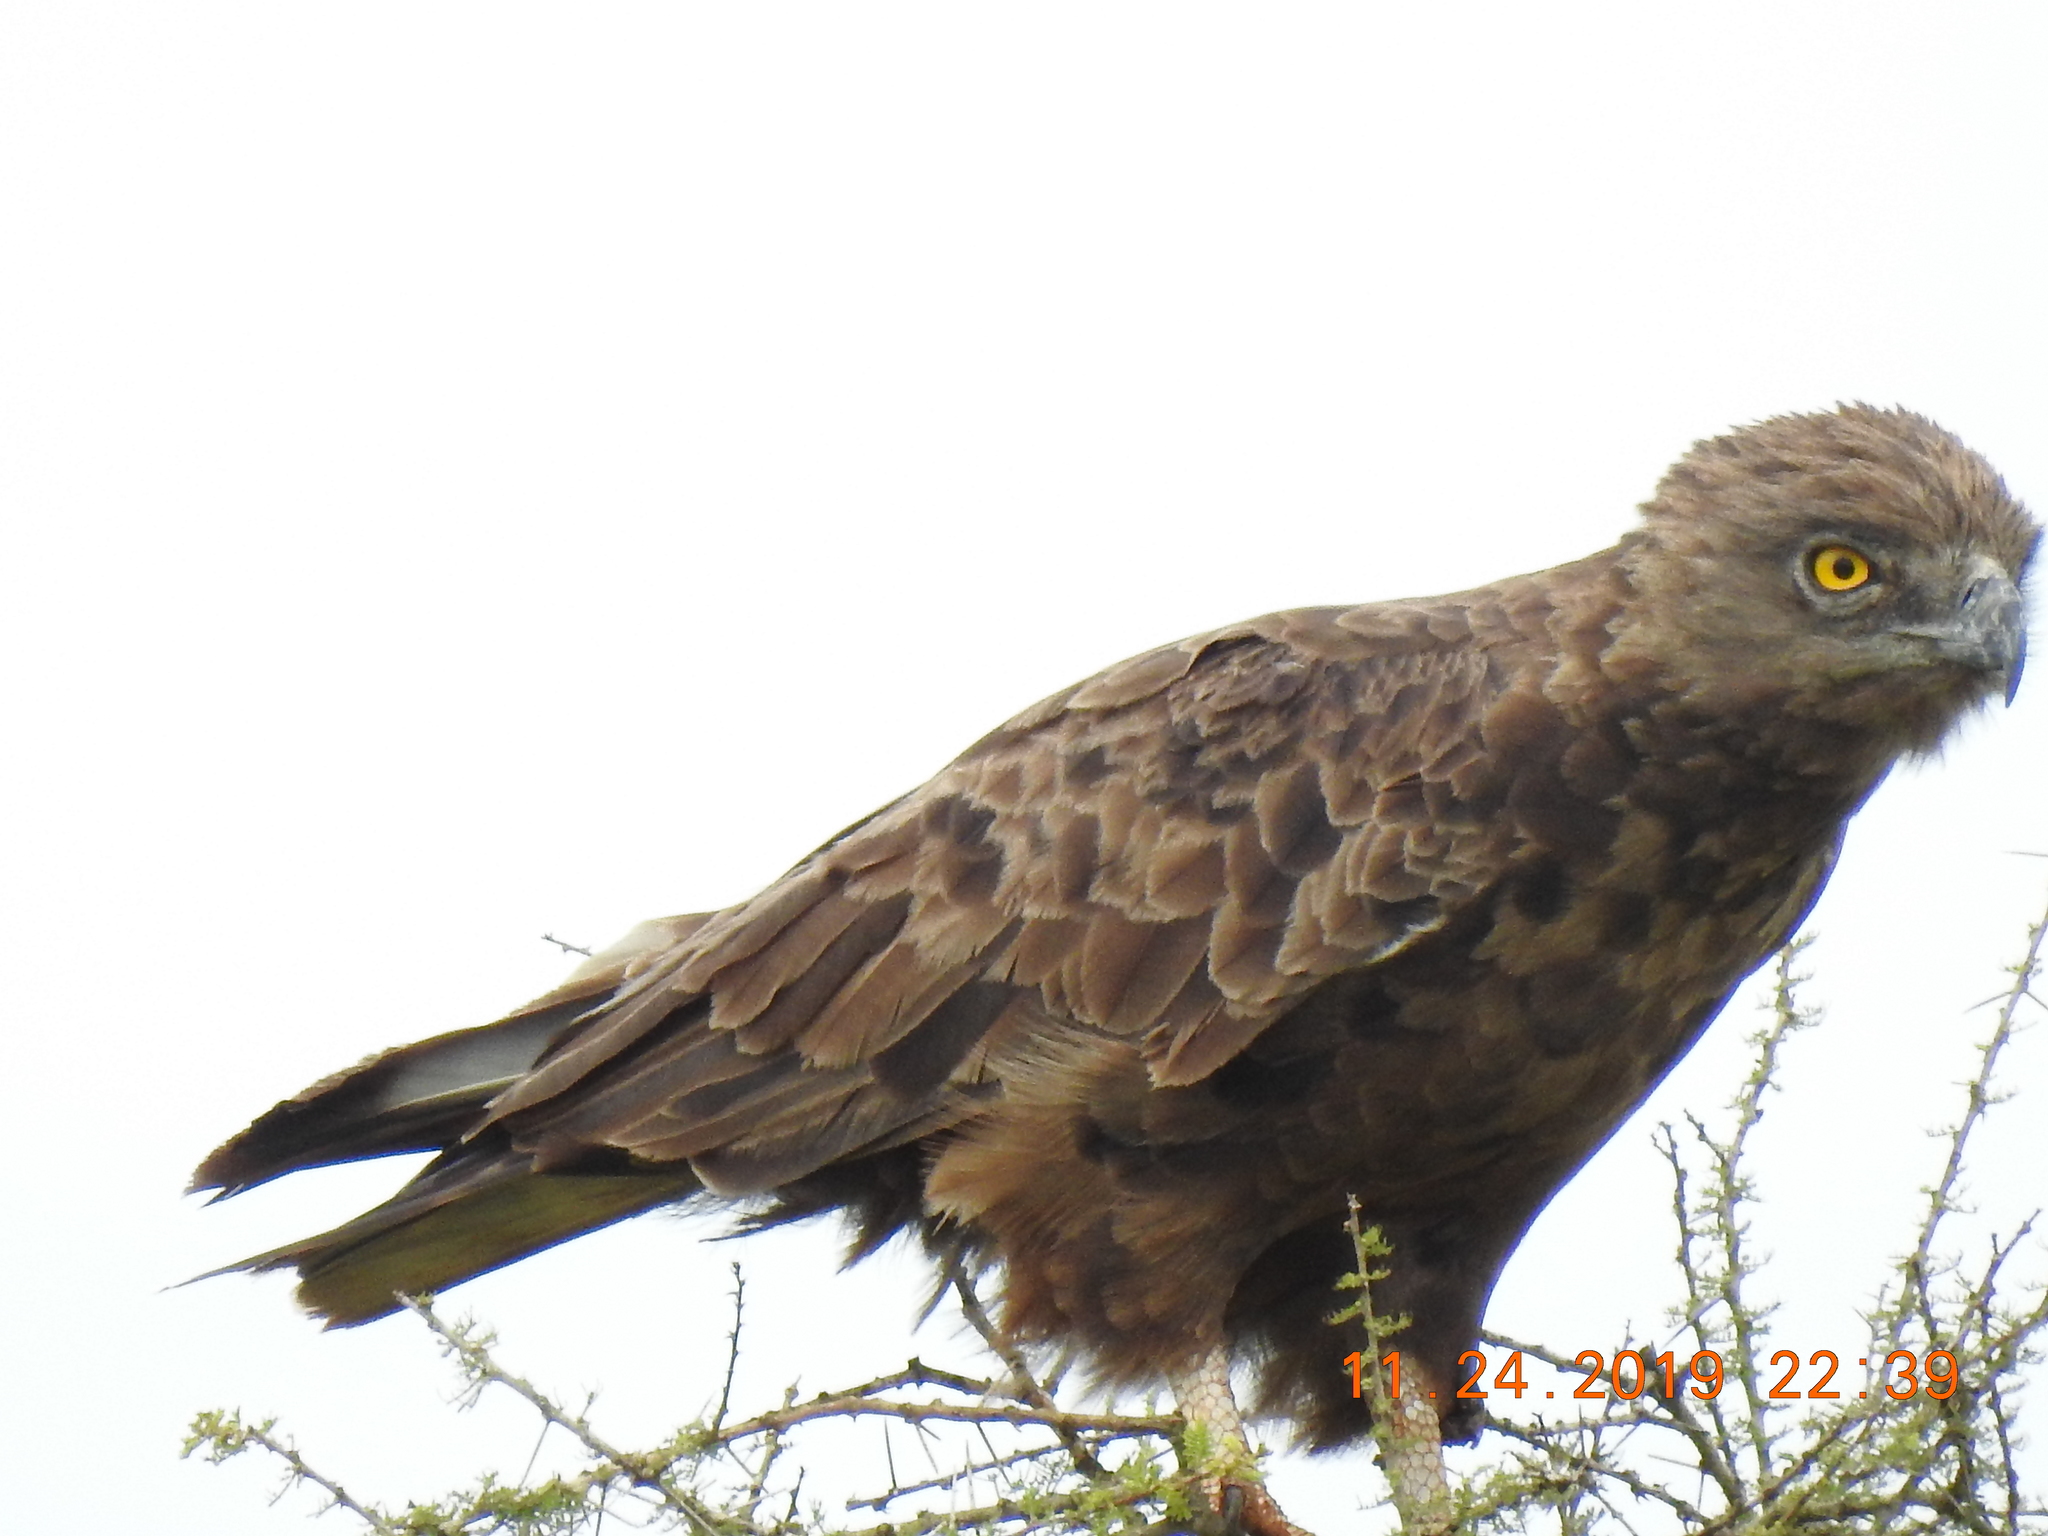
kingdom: Animalia
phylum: Chordata
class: Aves
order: Accipitriformes
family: Accipitridae
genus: Circaetus
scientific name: Circaetus cinereus
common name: Brown snake eagle
